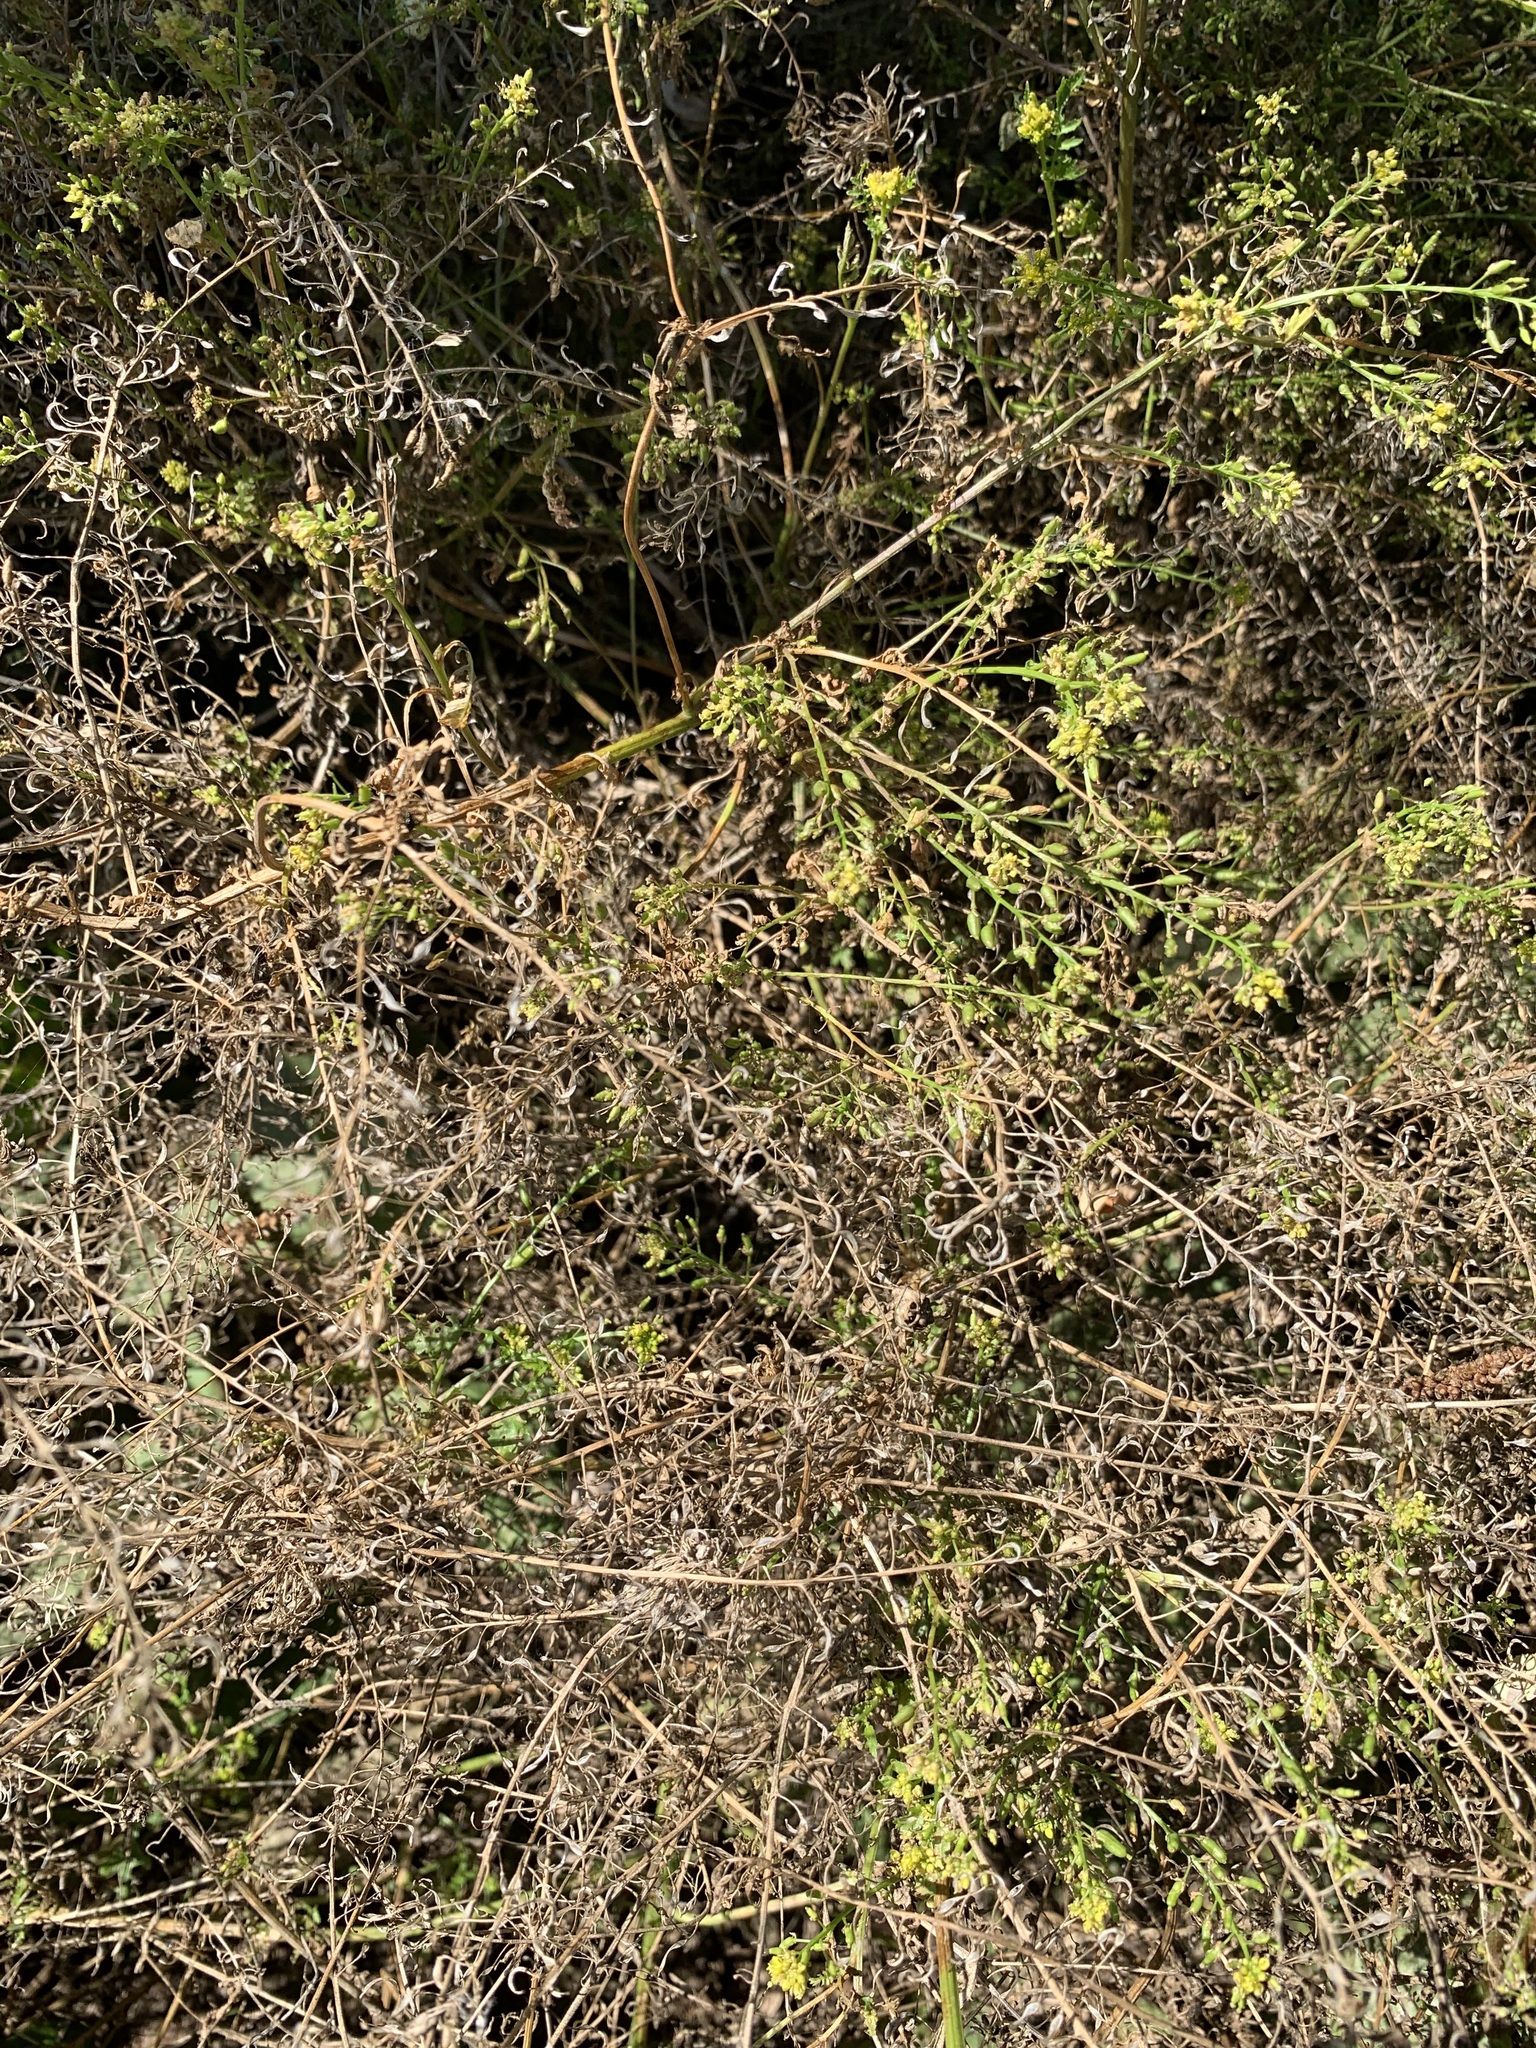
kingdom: Plantae
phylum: Tracheophyta
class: Magnoliopsida
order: Brassicales
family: Brassicaceae
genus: Rorippa
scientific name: Rorippa amphibia
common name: Great yellow-cress
